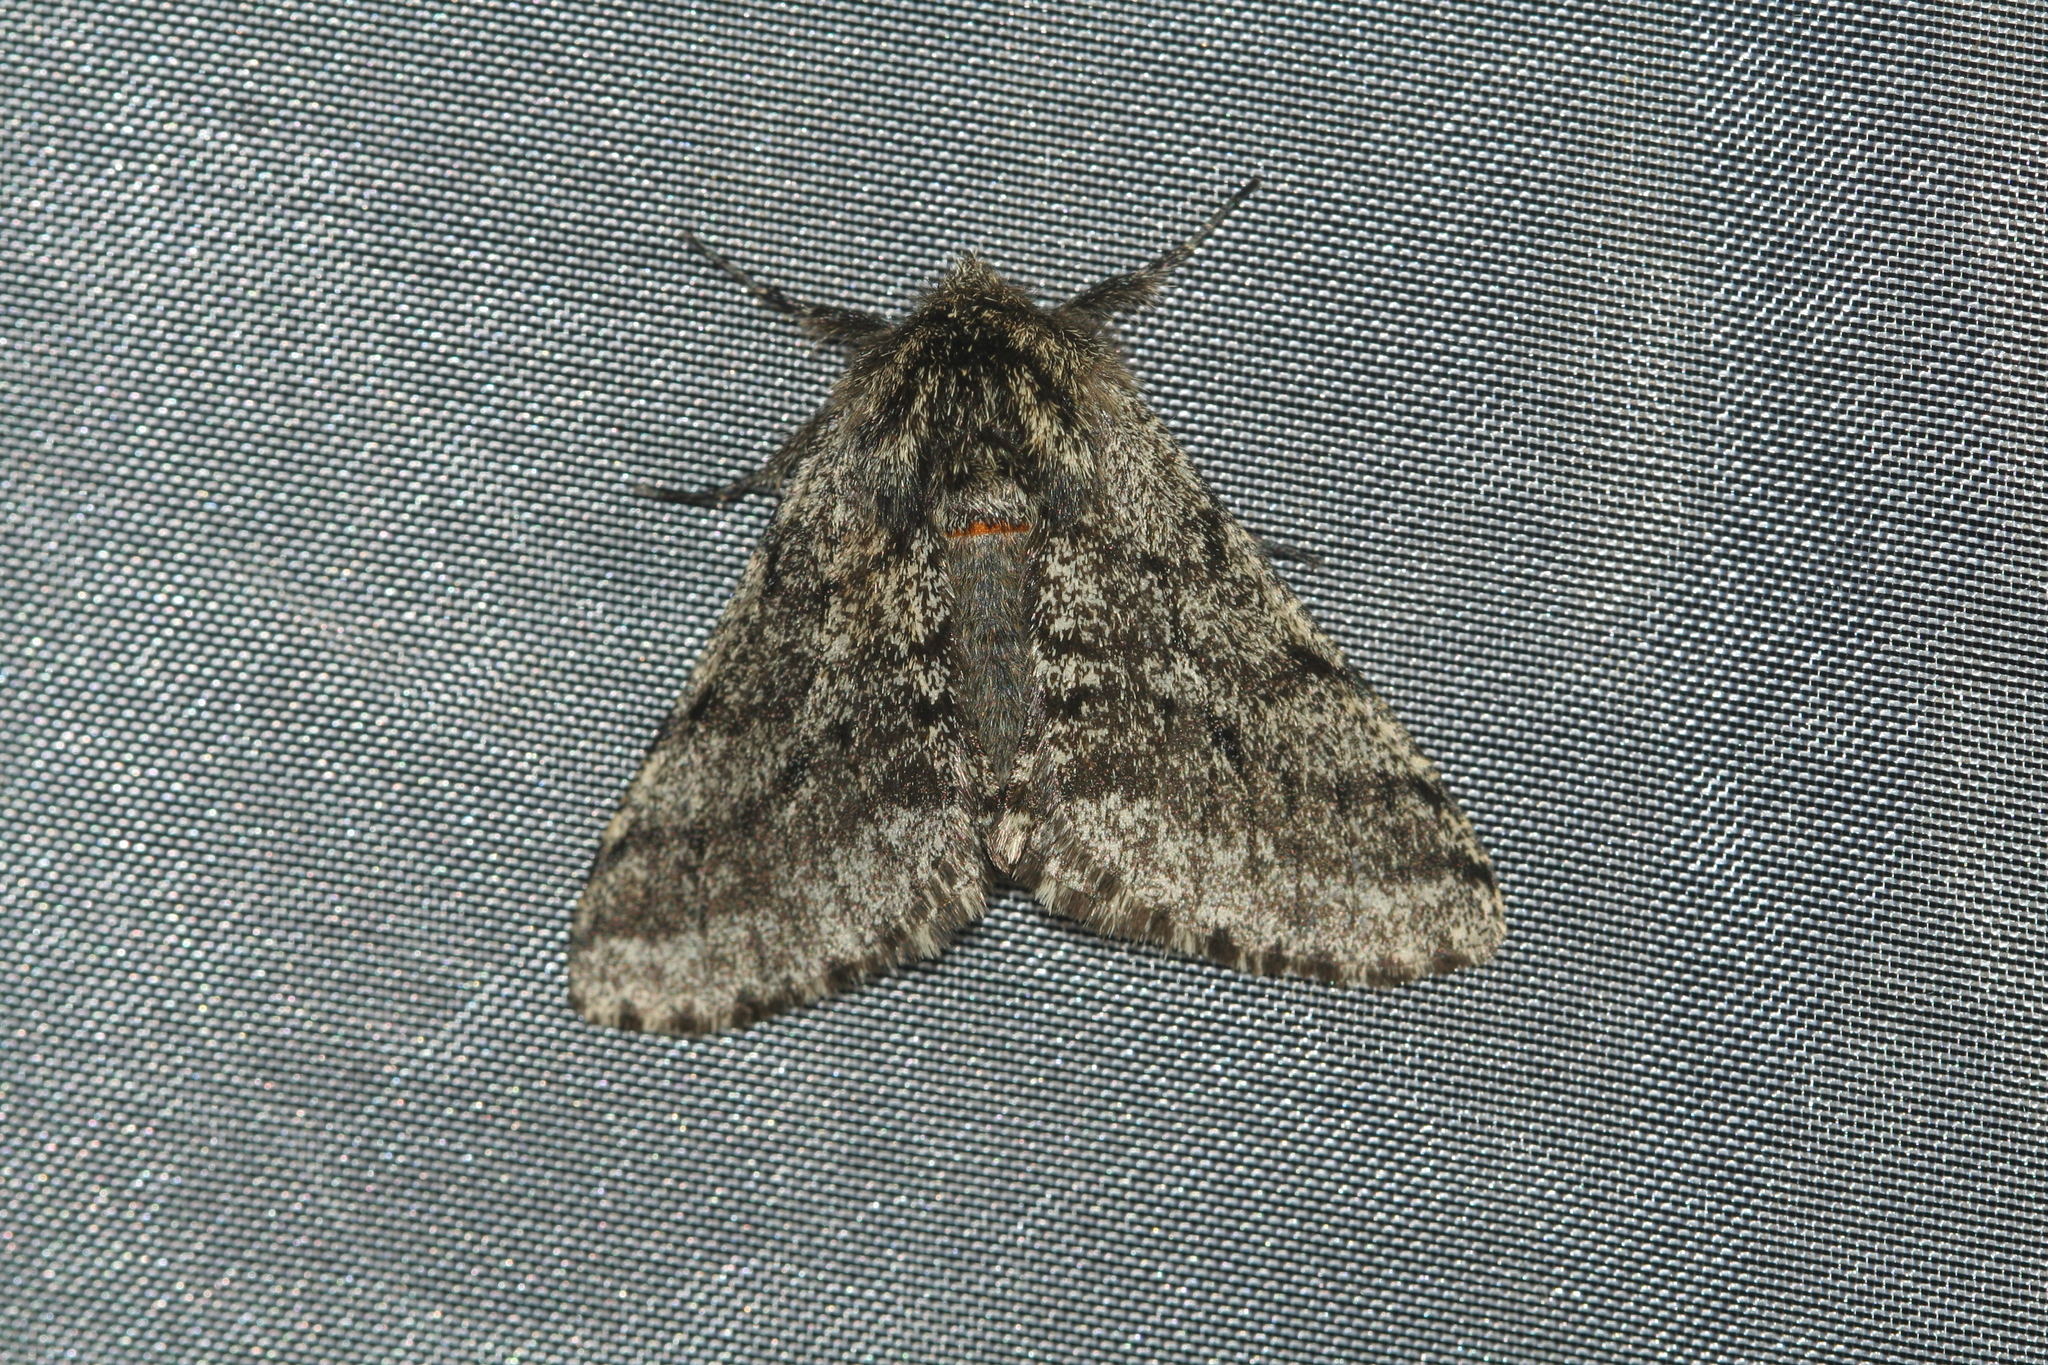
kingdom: Animalia
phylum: Arthropoda
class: Insecta
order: Lepidoptera
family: Geometridae
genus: Lycia
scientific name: Lycia hirtaria
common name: Brindled beauty
